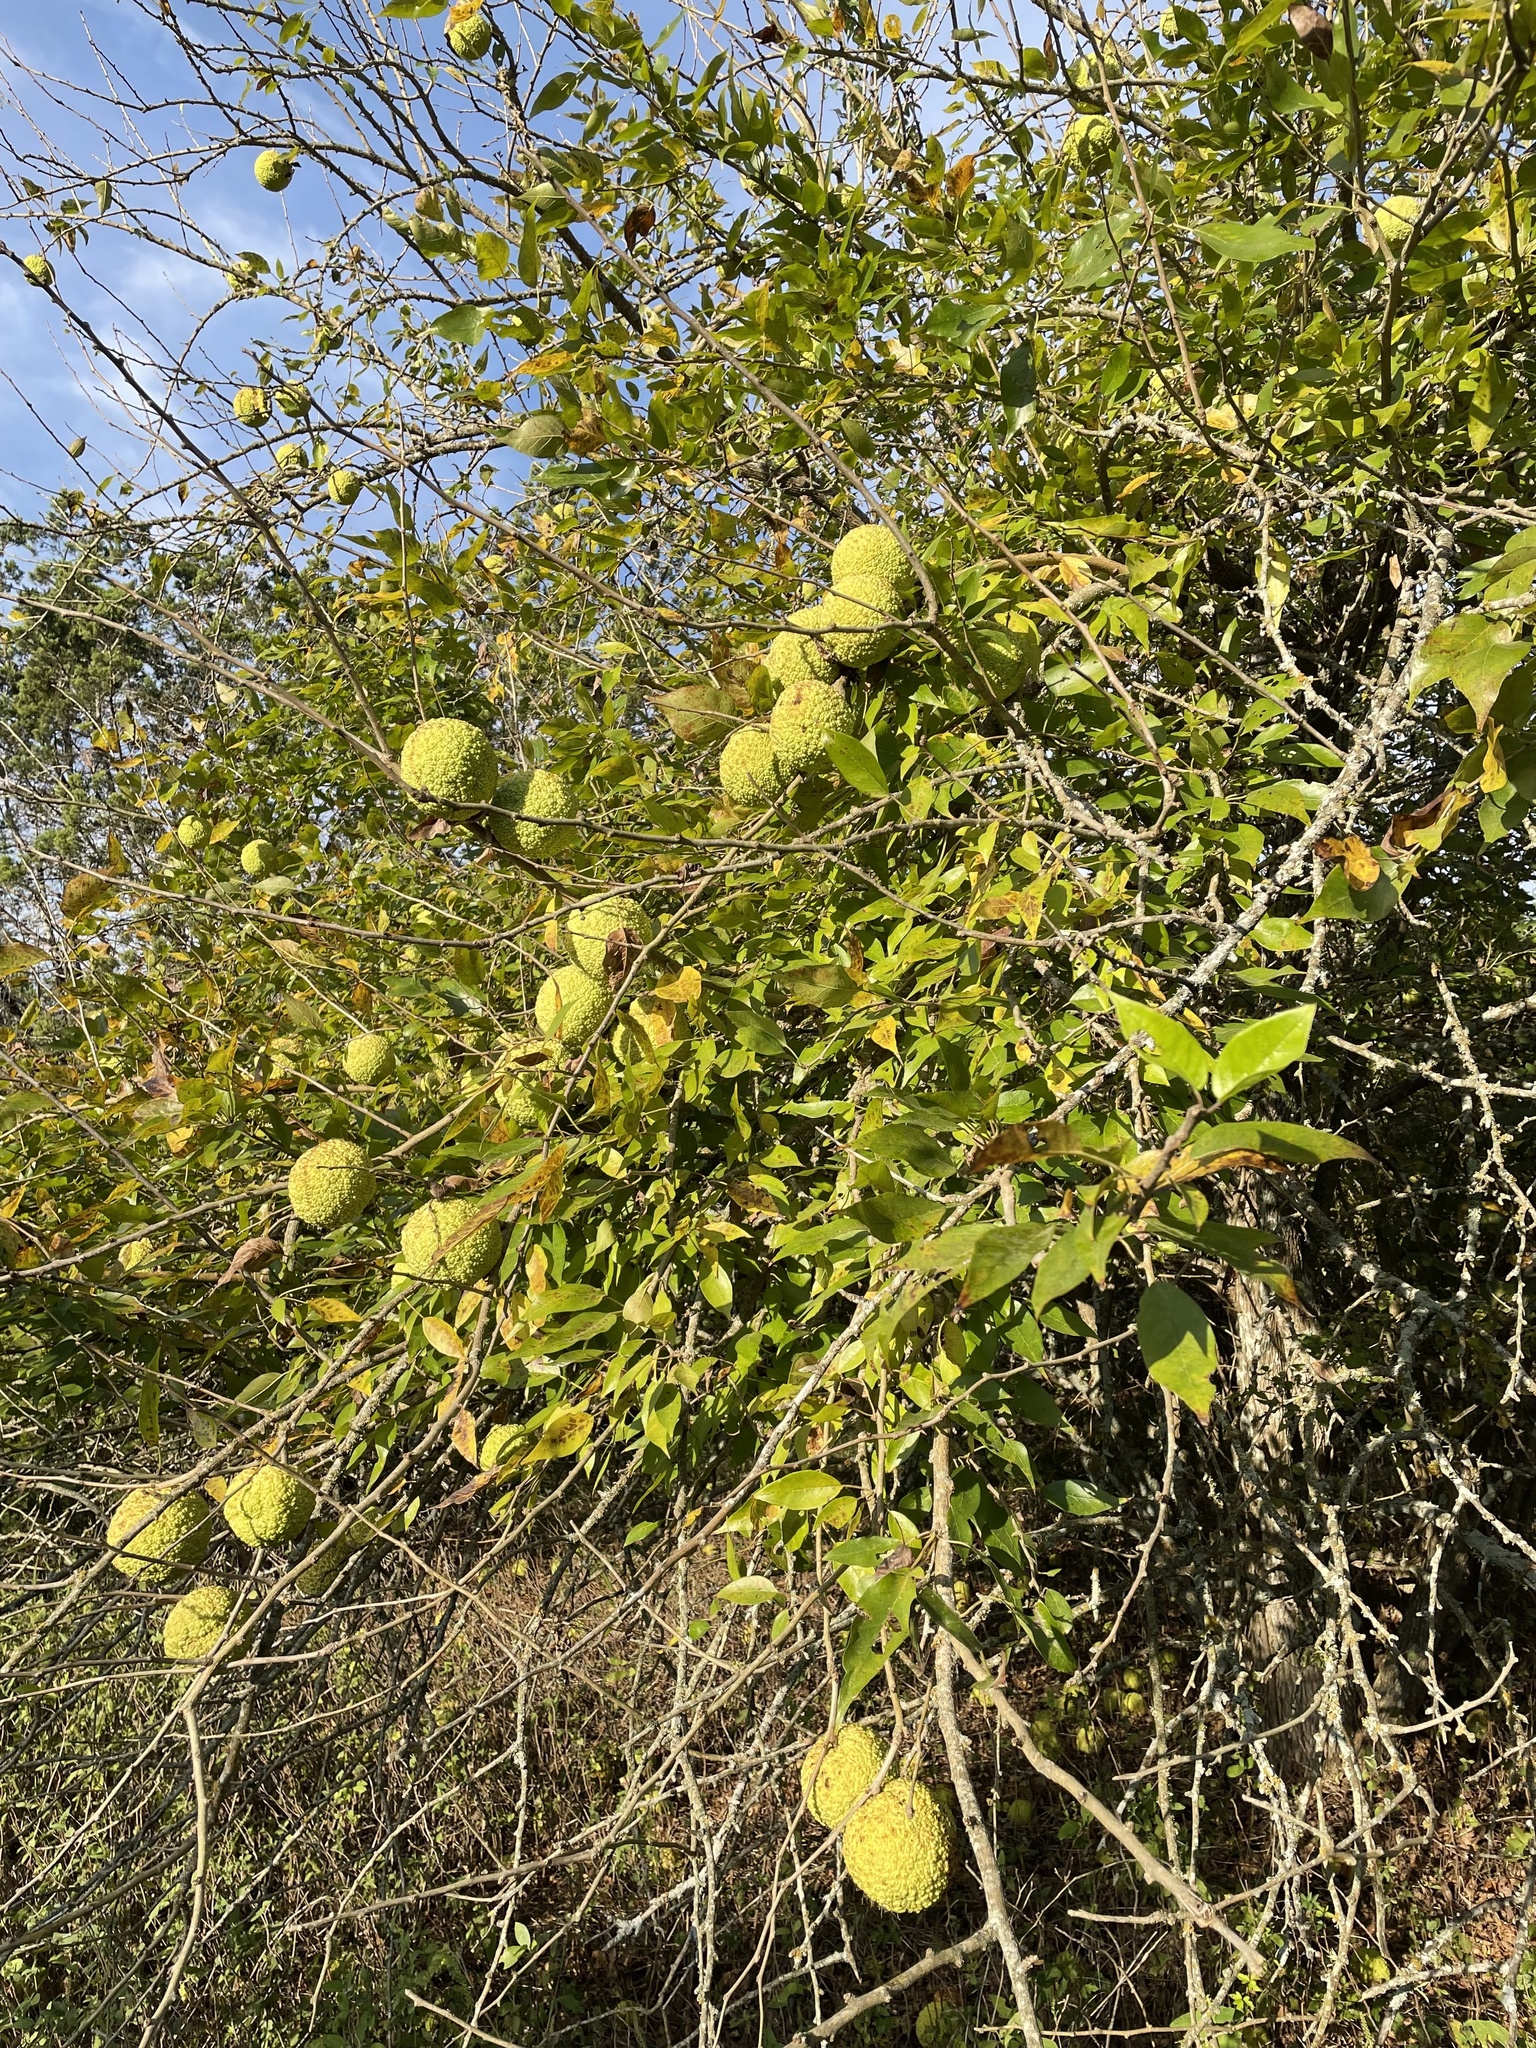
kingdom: Plantae
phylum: Tracheophyta
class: Magnoliopsida
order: Rosales
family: Moraceae
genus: Maclura
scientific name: Maclura pomifera
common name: Osage-orange
